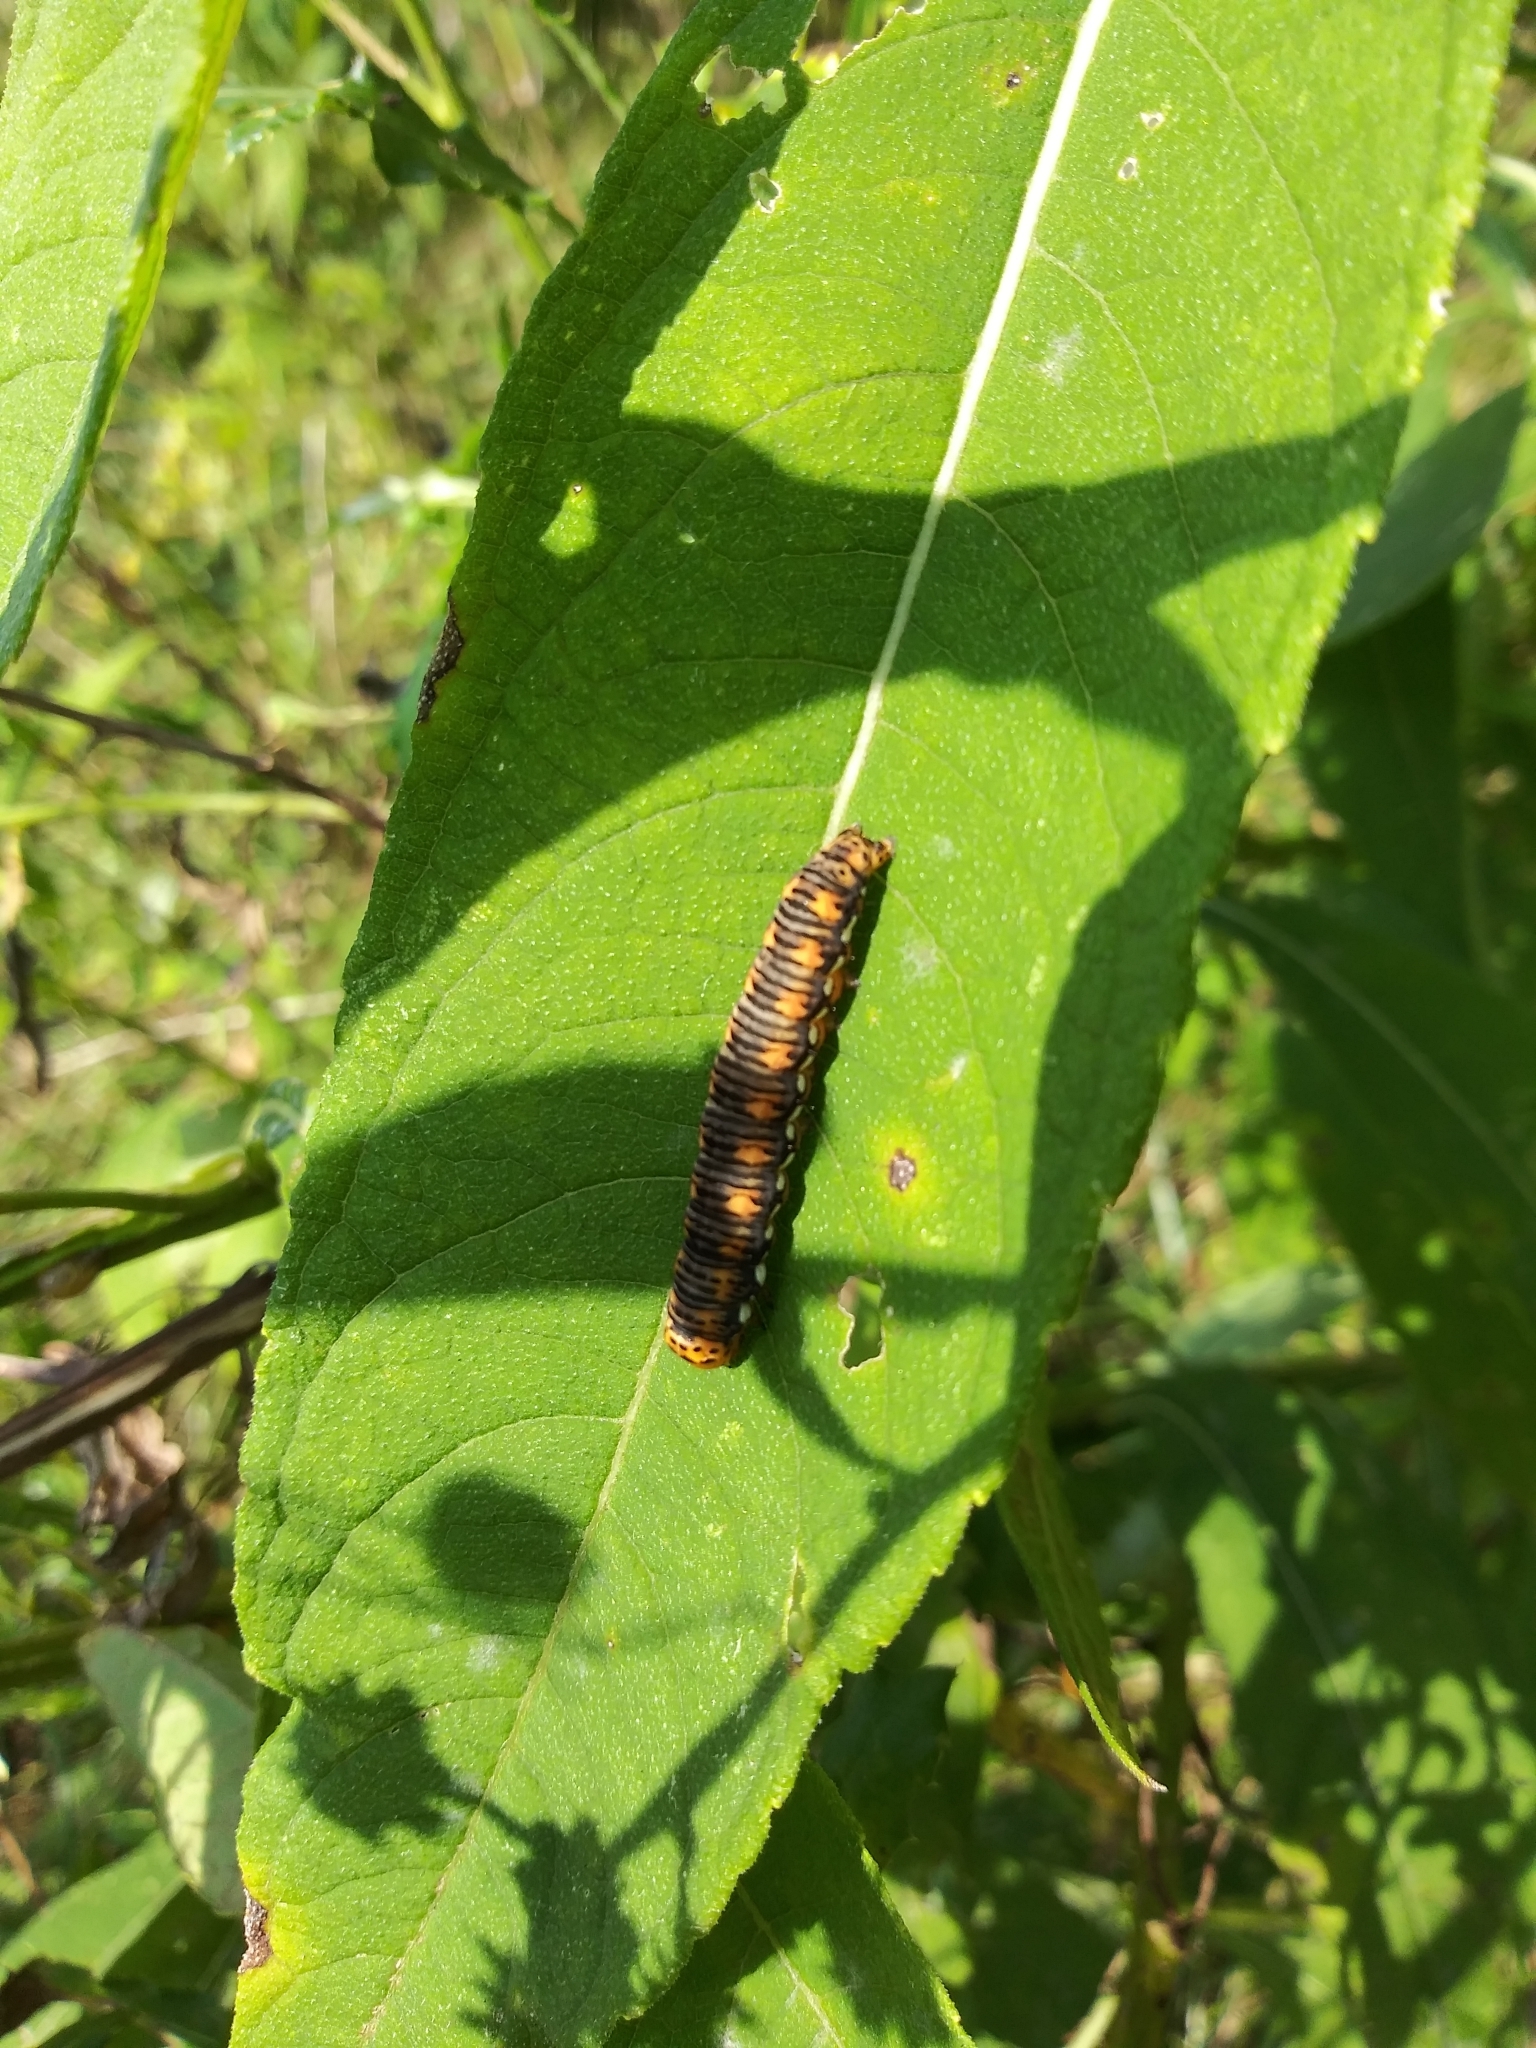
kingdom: Animalia
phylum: Arthropoda
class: Insecta
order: Lepidoptera
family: Noctuidae
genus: Basilodes
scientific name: Basilodes pepita
